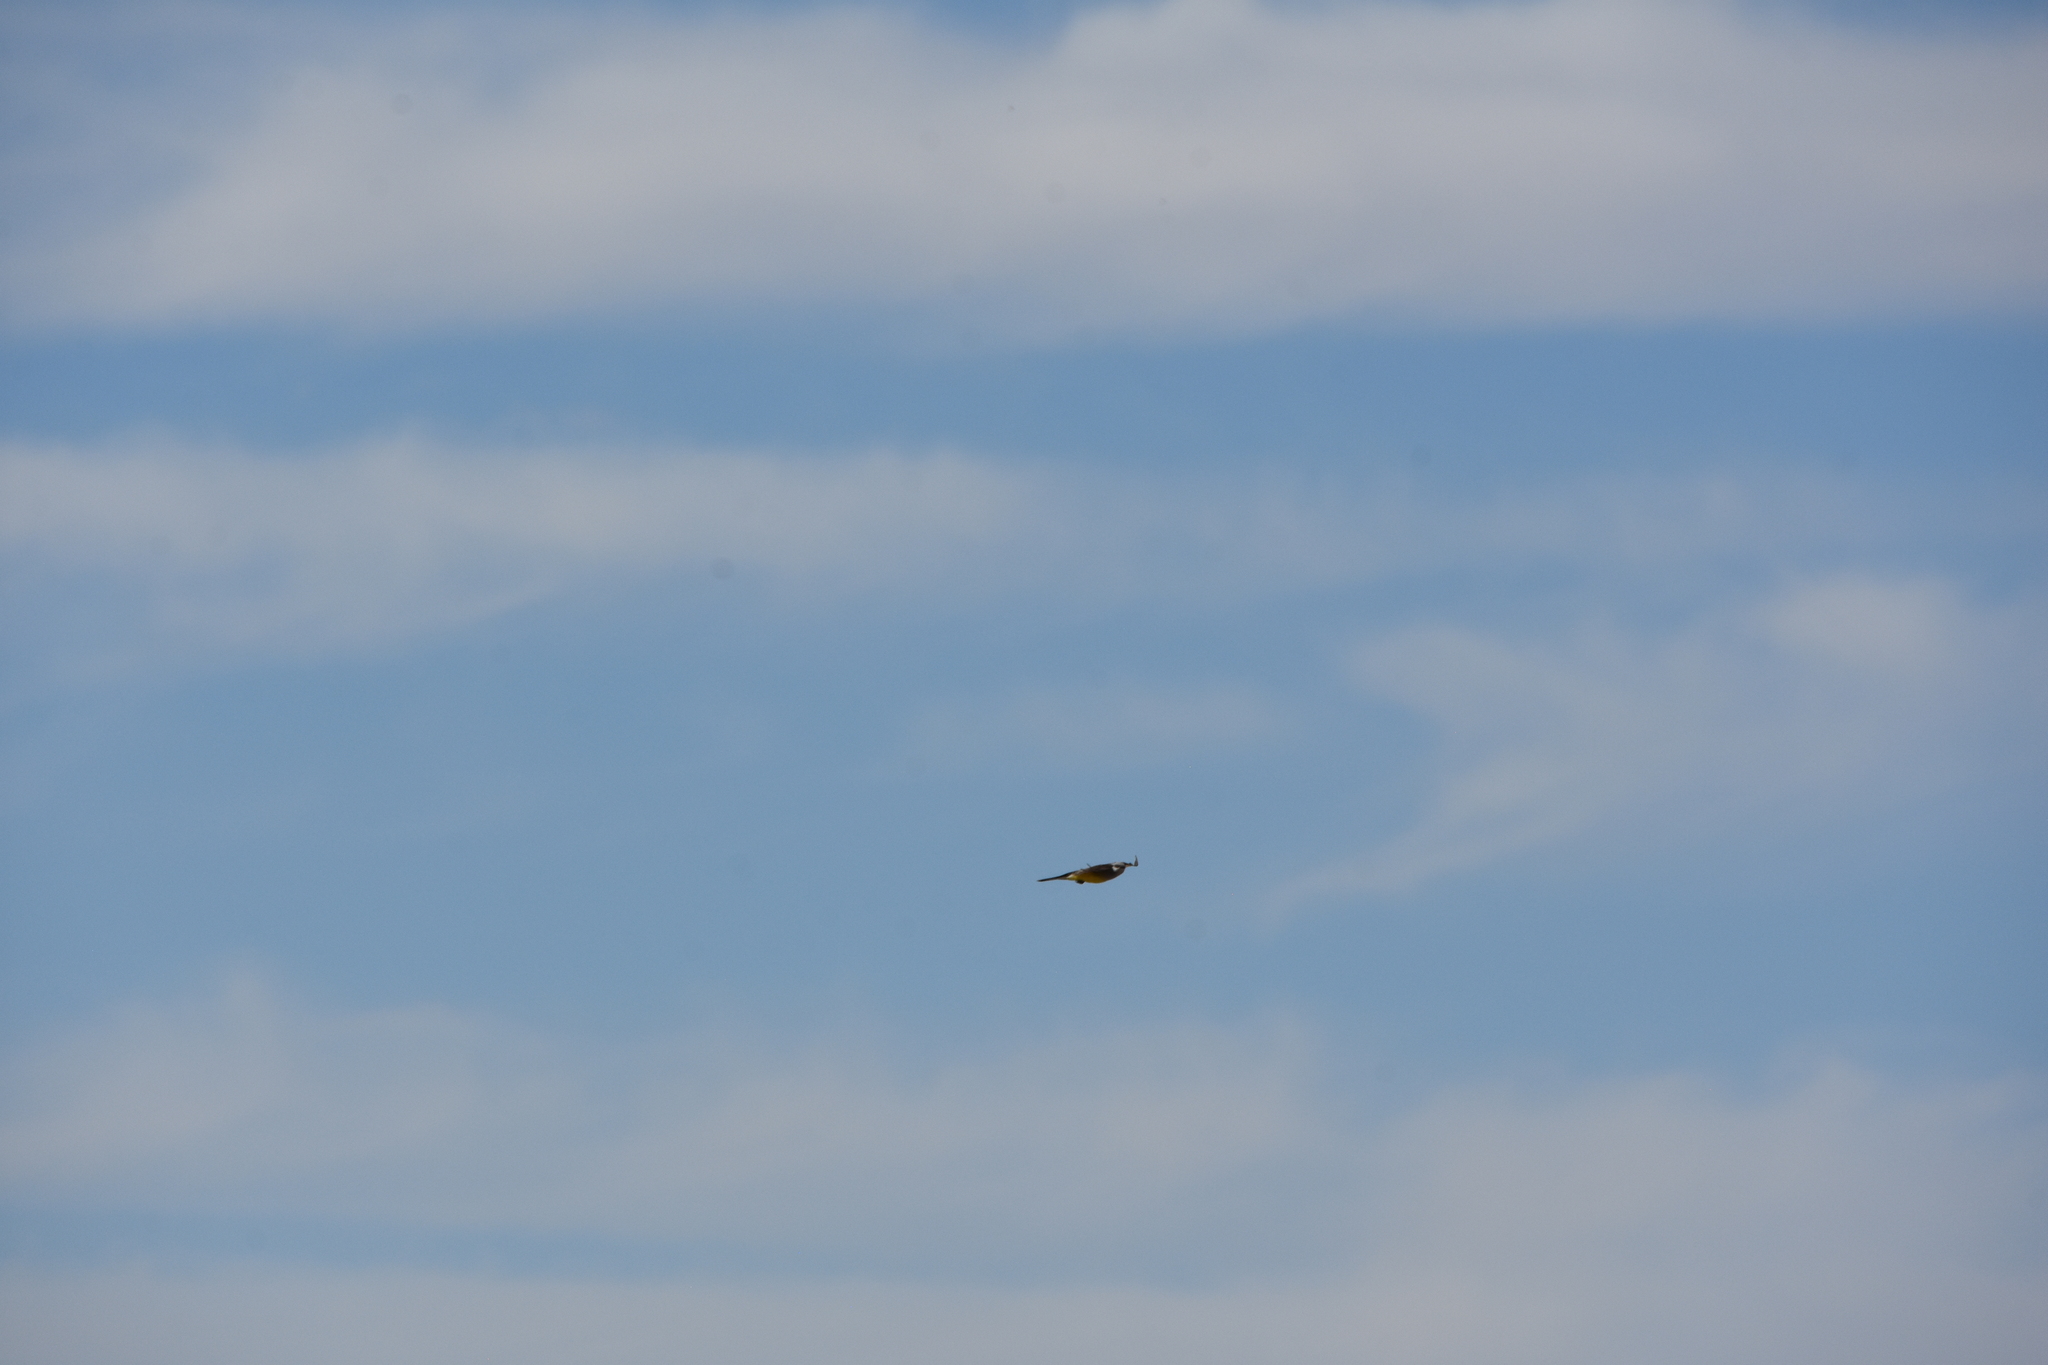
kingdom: Animalia
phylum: Chordata
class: Aves
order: Passeriformes
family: Tyrannidae
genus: Tyrannus
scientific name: Tyrannus verticalis
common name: Western kingbird
